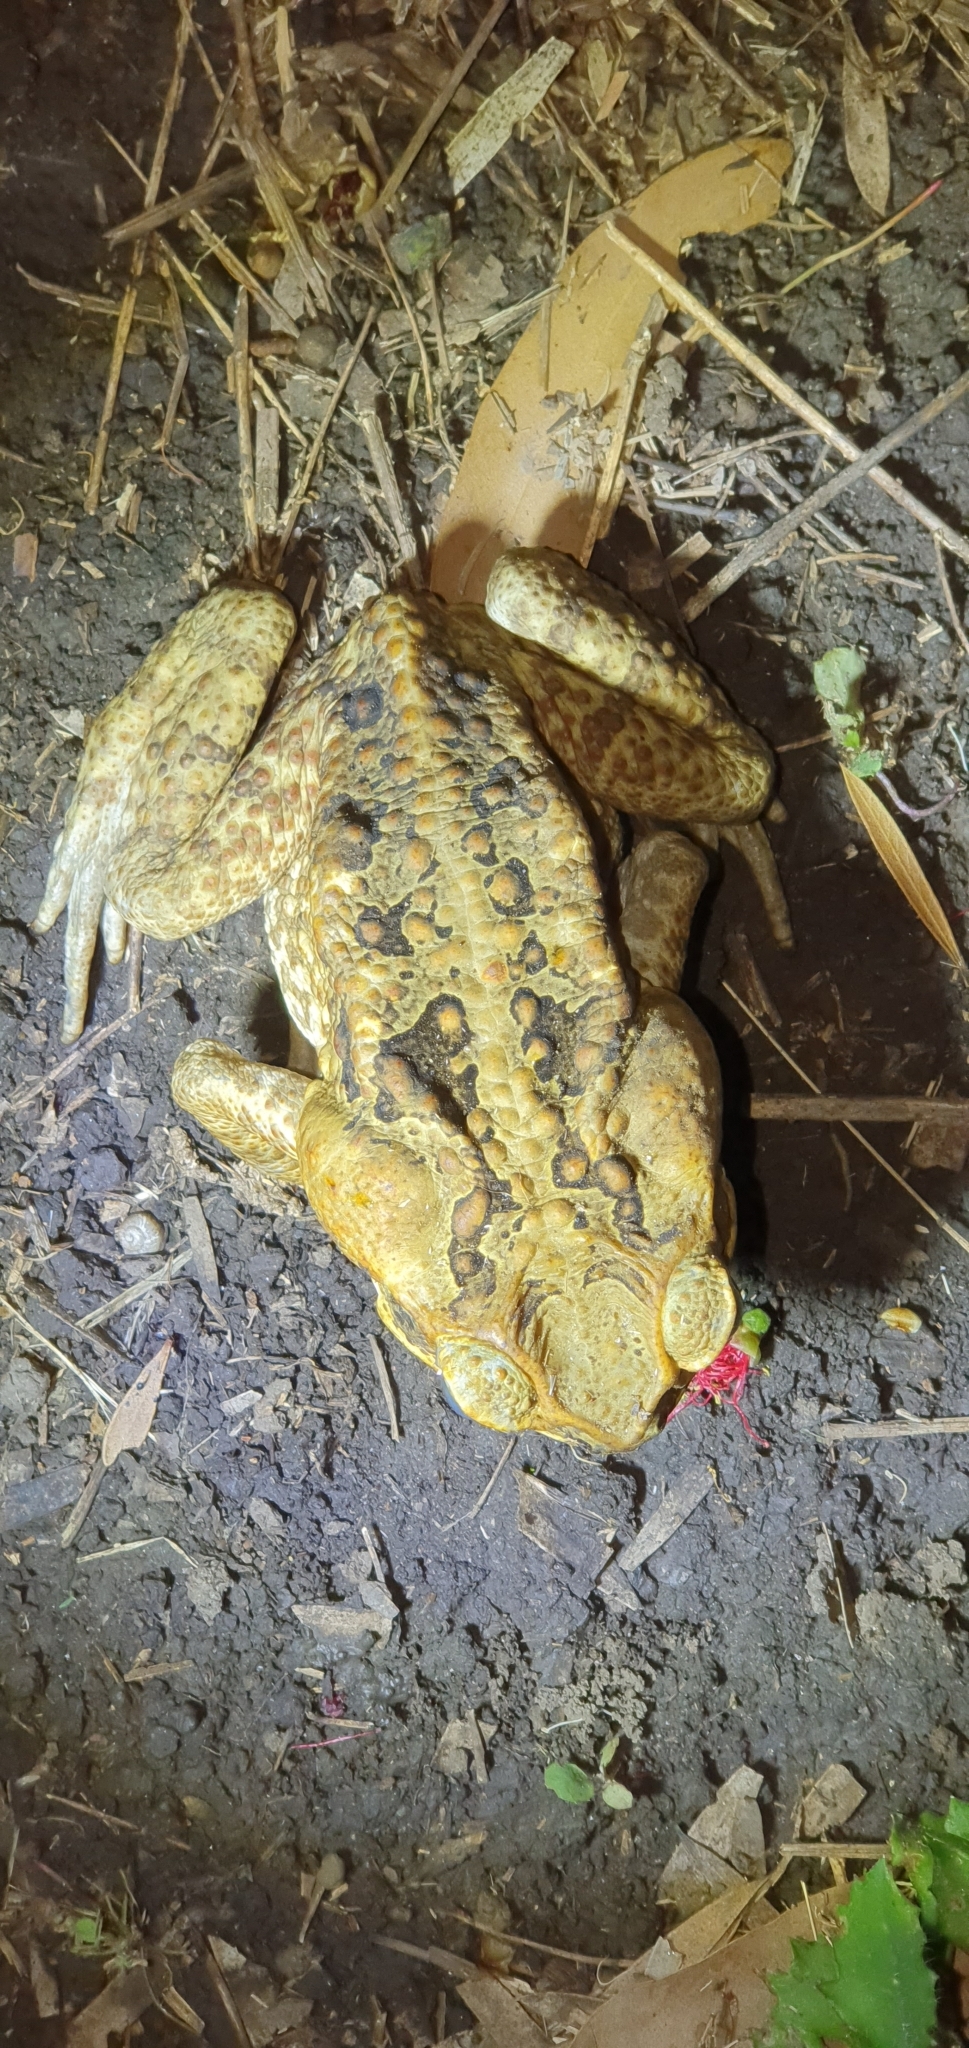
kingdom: Animalia
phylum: Chordata
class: Amphibia
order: Anura
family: Bufonidae
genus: Rhinella
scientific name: Rhinella marina
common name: Cane toad
